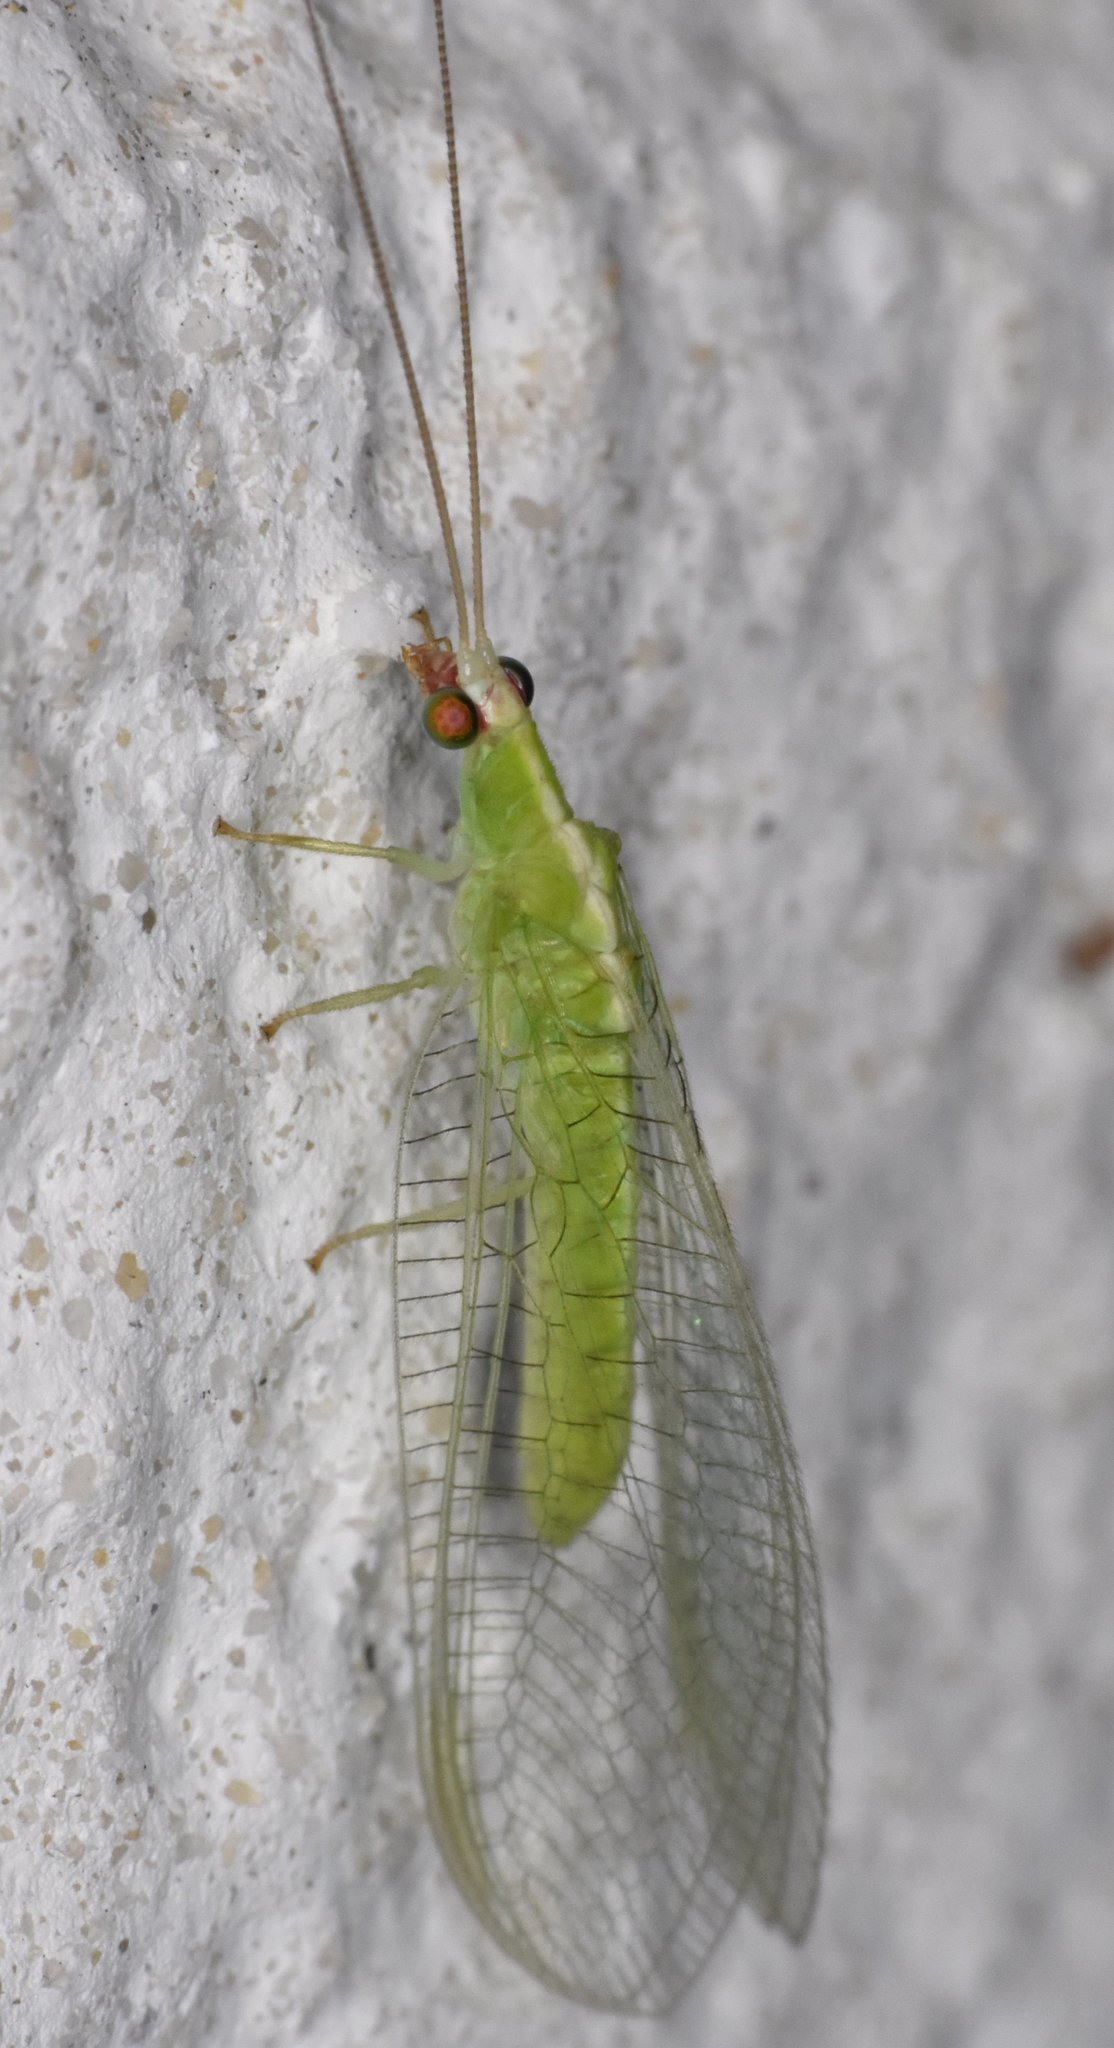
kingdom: Animalia
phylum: Arthropoda
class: Insecta
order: Neuroptera
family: Chrysopidae
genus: Chrysopodes
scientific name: Chrysopodes collaris
